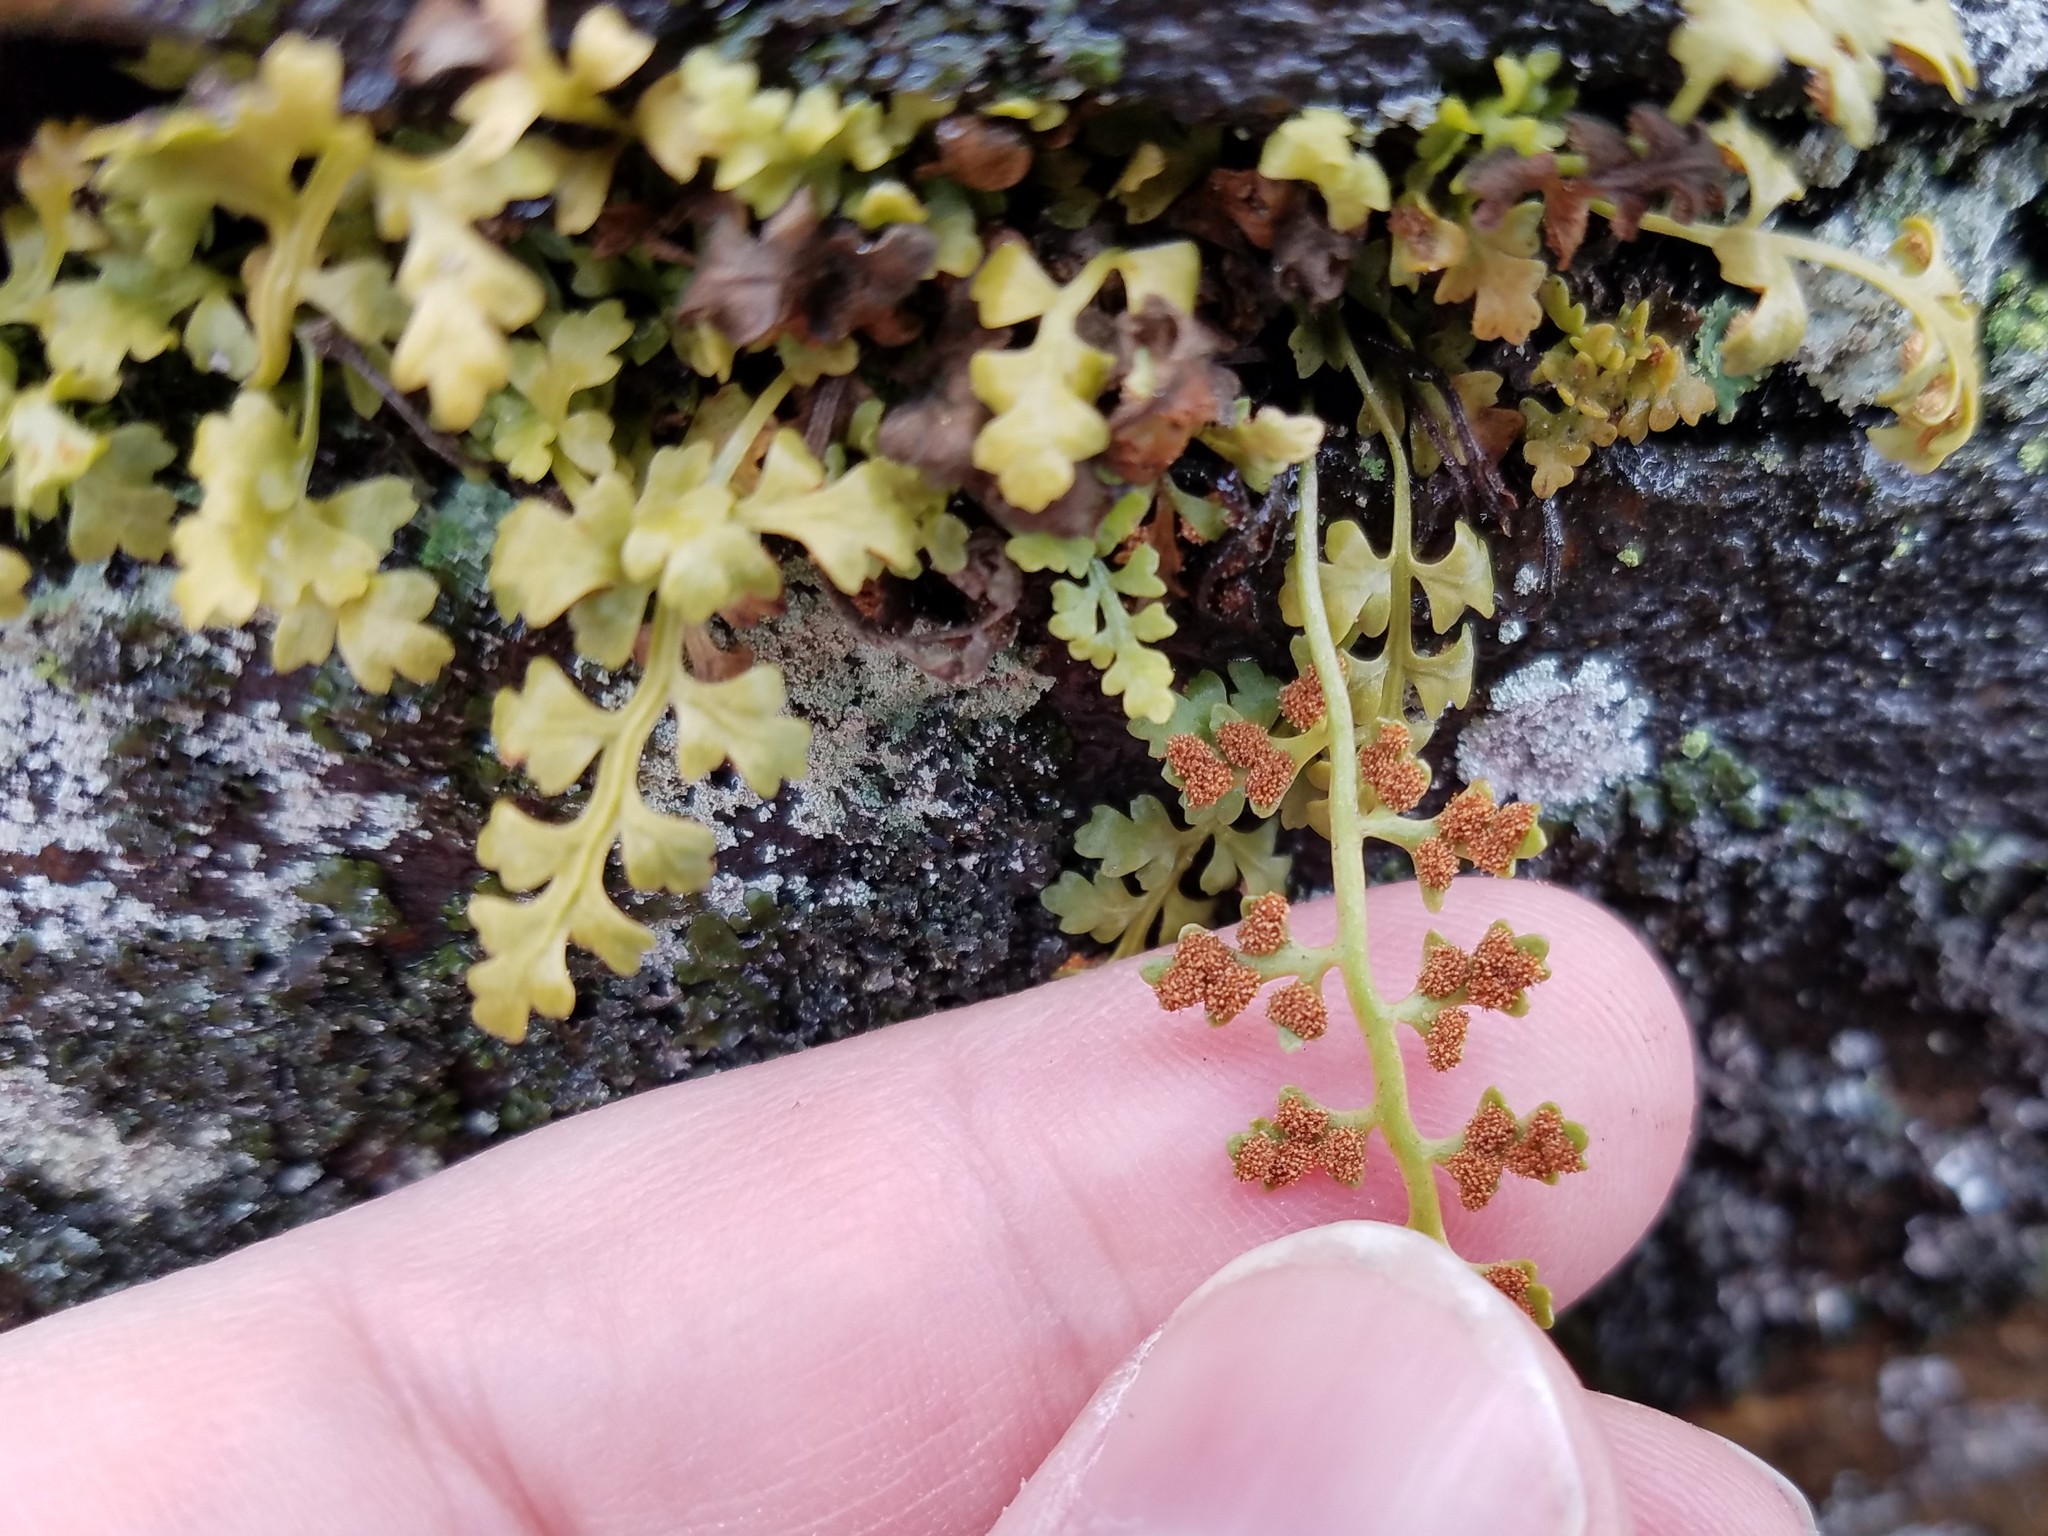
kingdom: Plantae
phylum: Tracheophyta
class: Polypodiopsida
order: Polypodiales
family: Aspleniaceae
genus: Asplenium
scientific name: Asplenium montanum
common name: Mountain spleenwort
